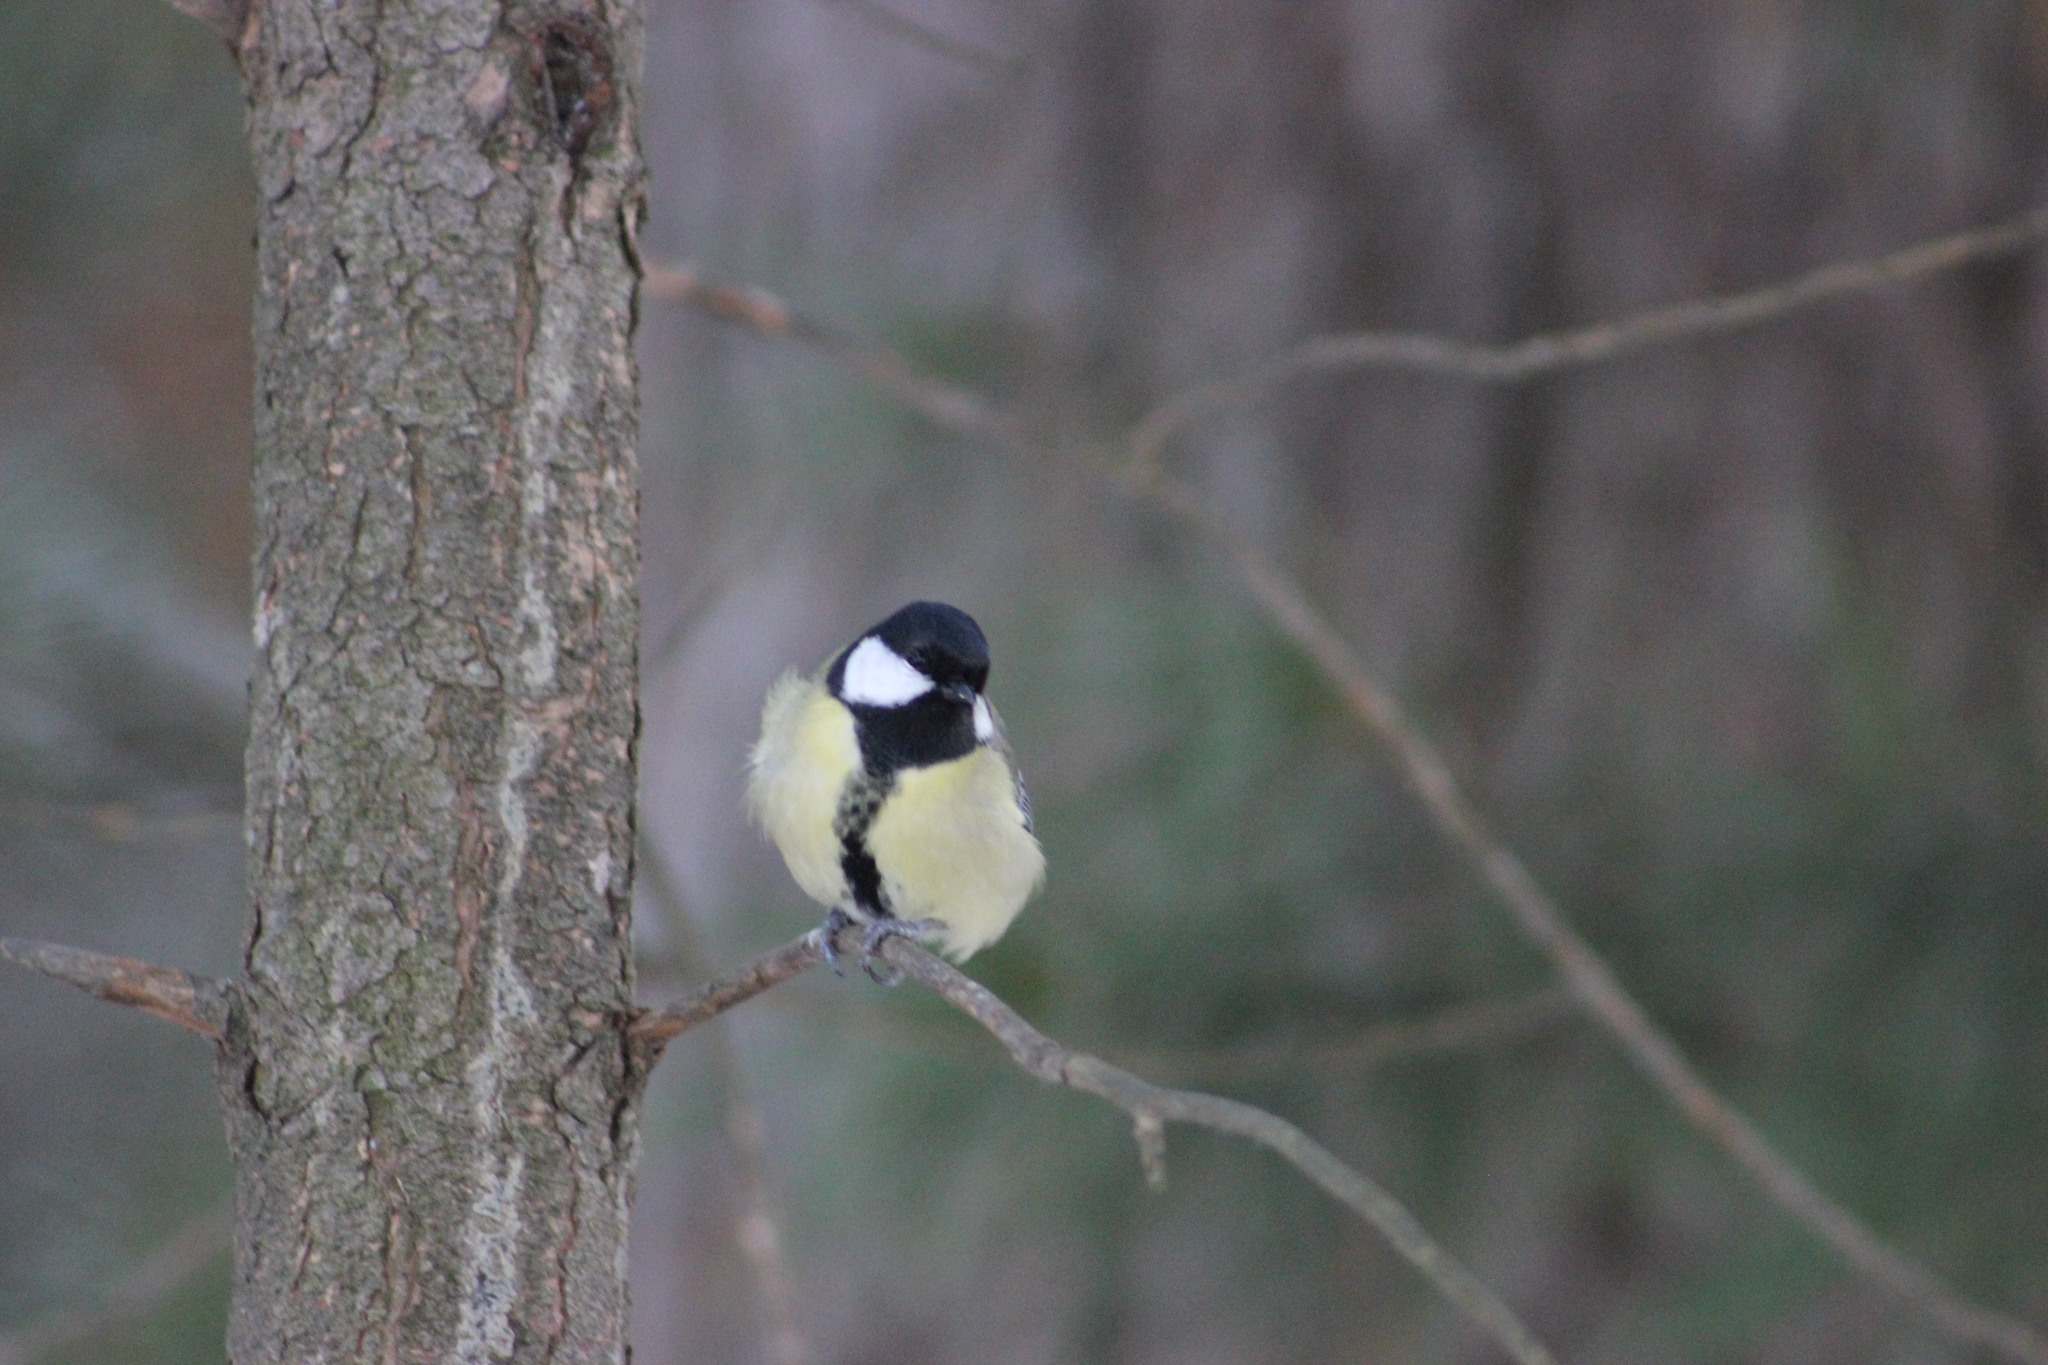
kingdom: Animalia
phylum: Chordata
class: Aves
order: Passeriformes
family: Paridae
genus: Parus
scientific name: Parus major
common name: Great tit
